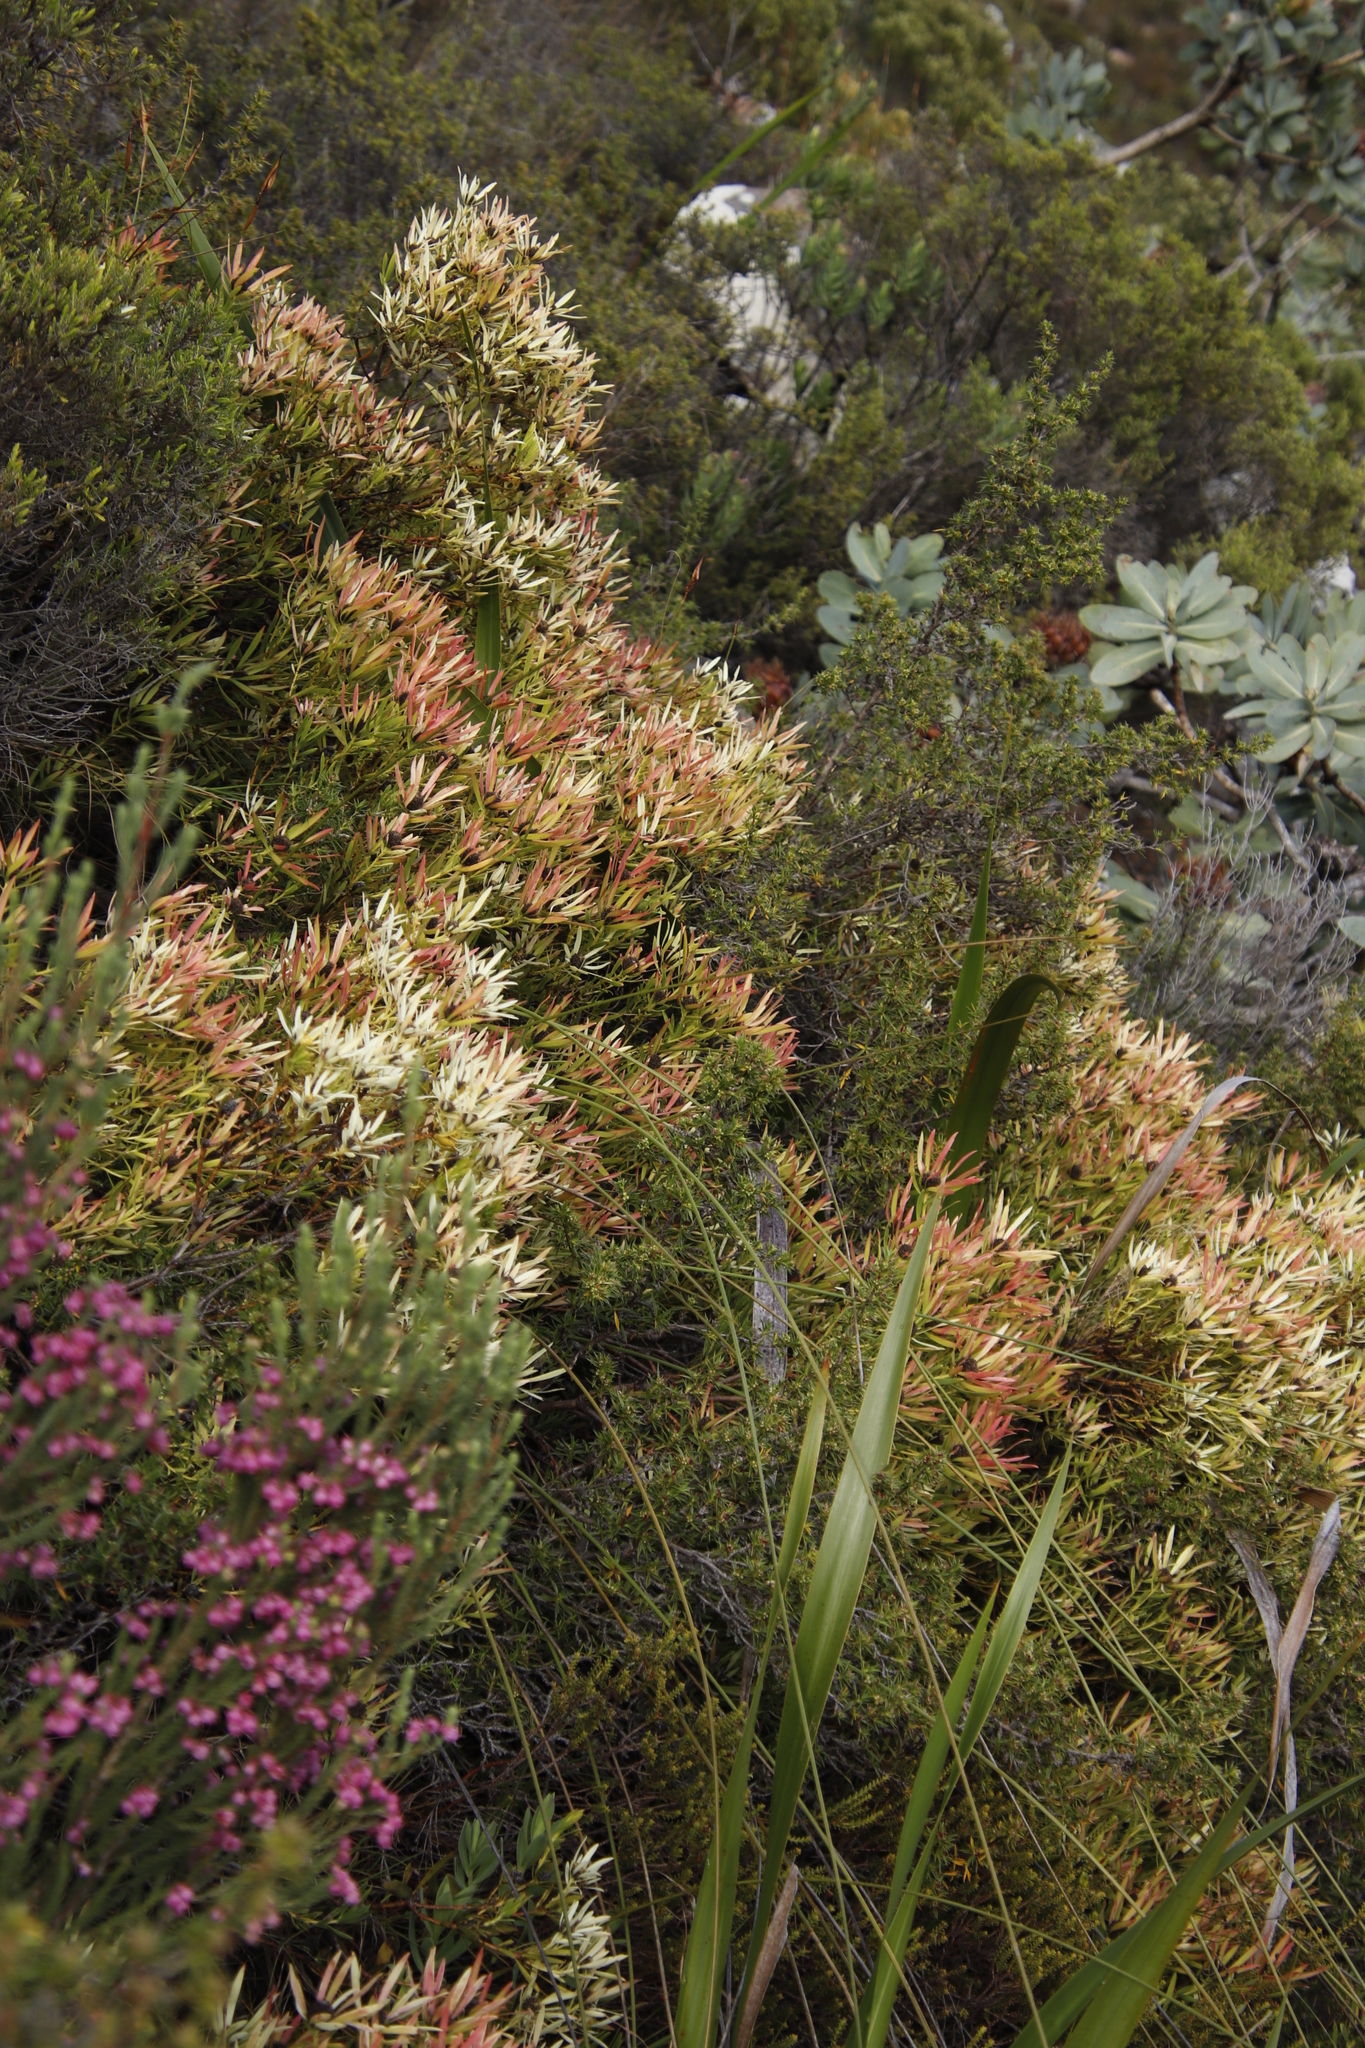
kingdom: Plantae
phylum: Tracheophyta
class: Magnoliopsida
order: Proteales
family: Proteaceae
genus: Leucadendron
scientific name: Leucadendron salignum
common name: Common sunshine conebush
